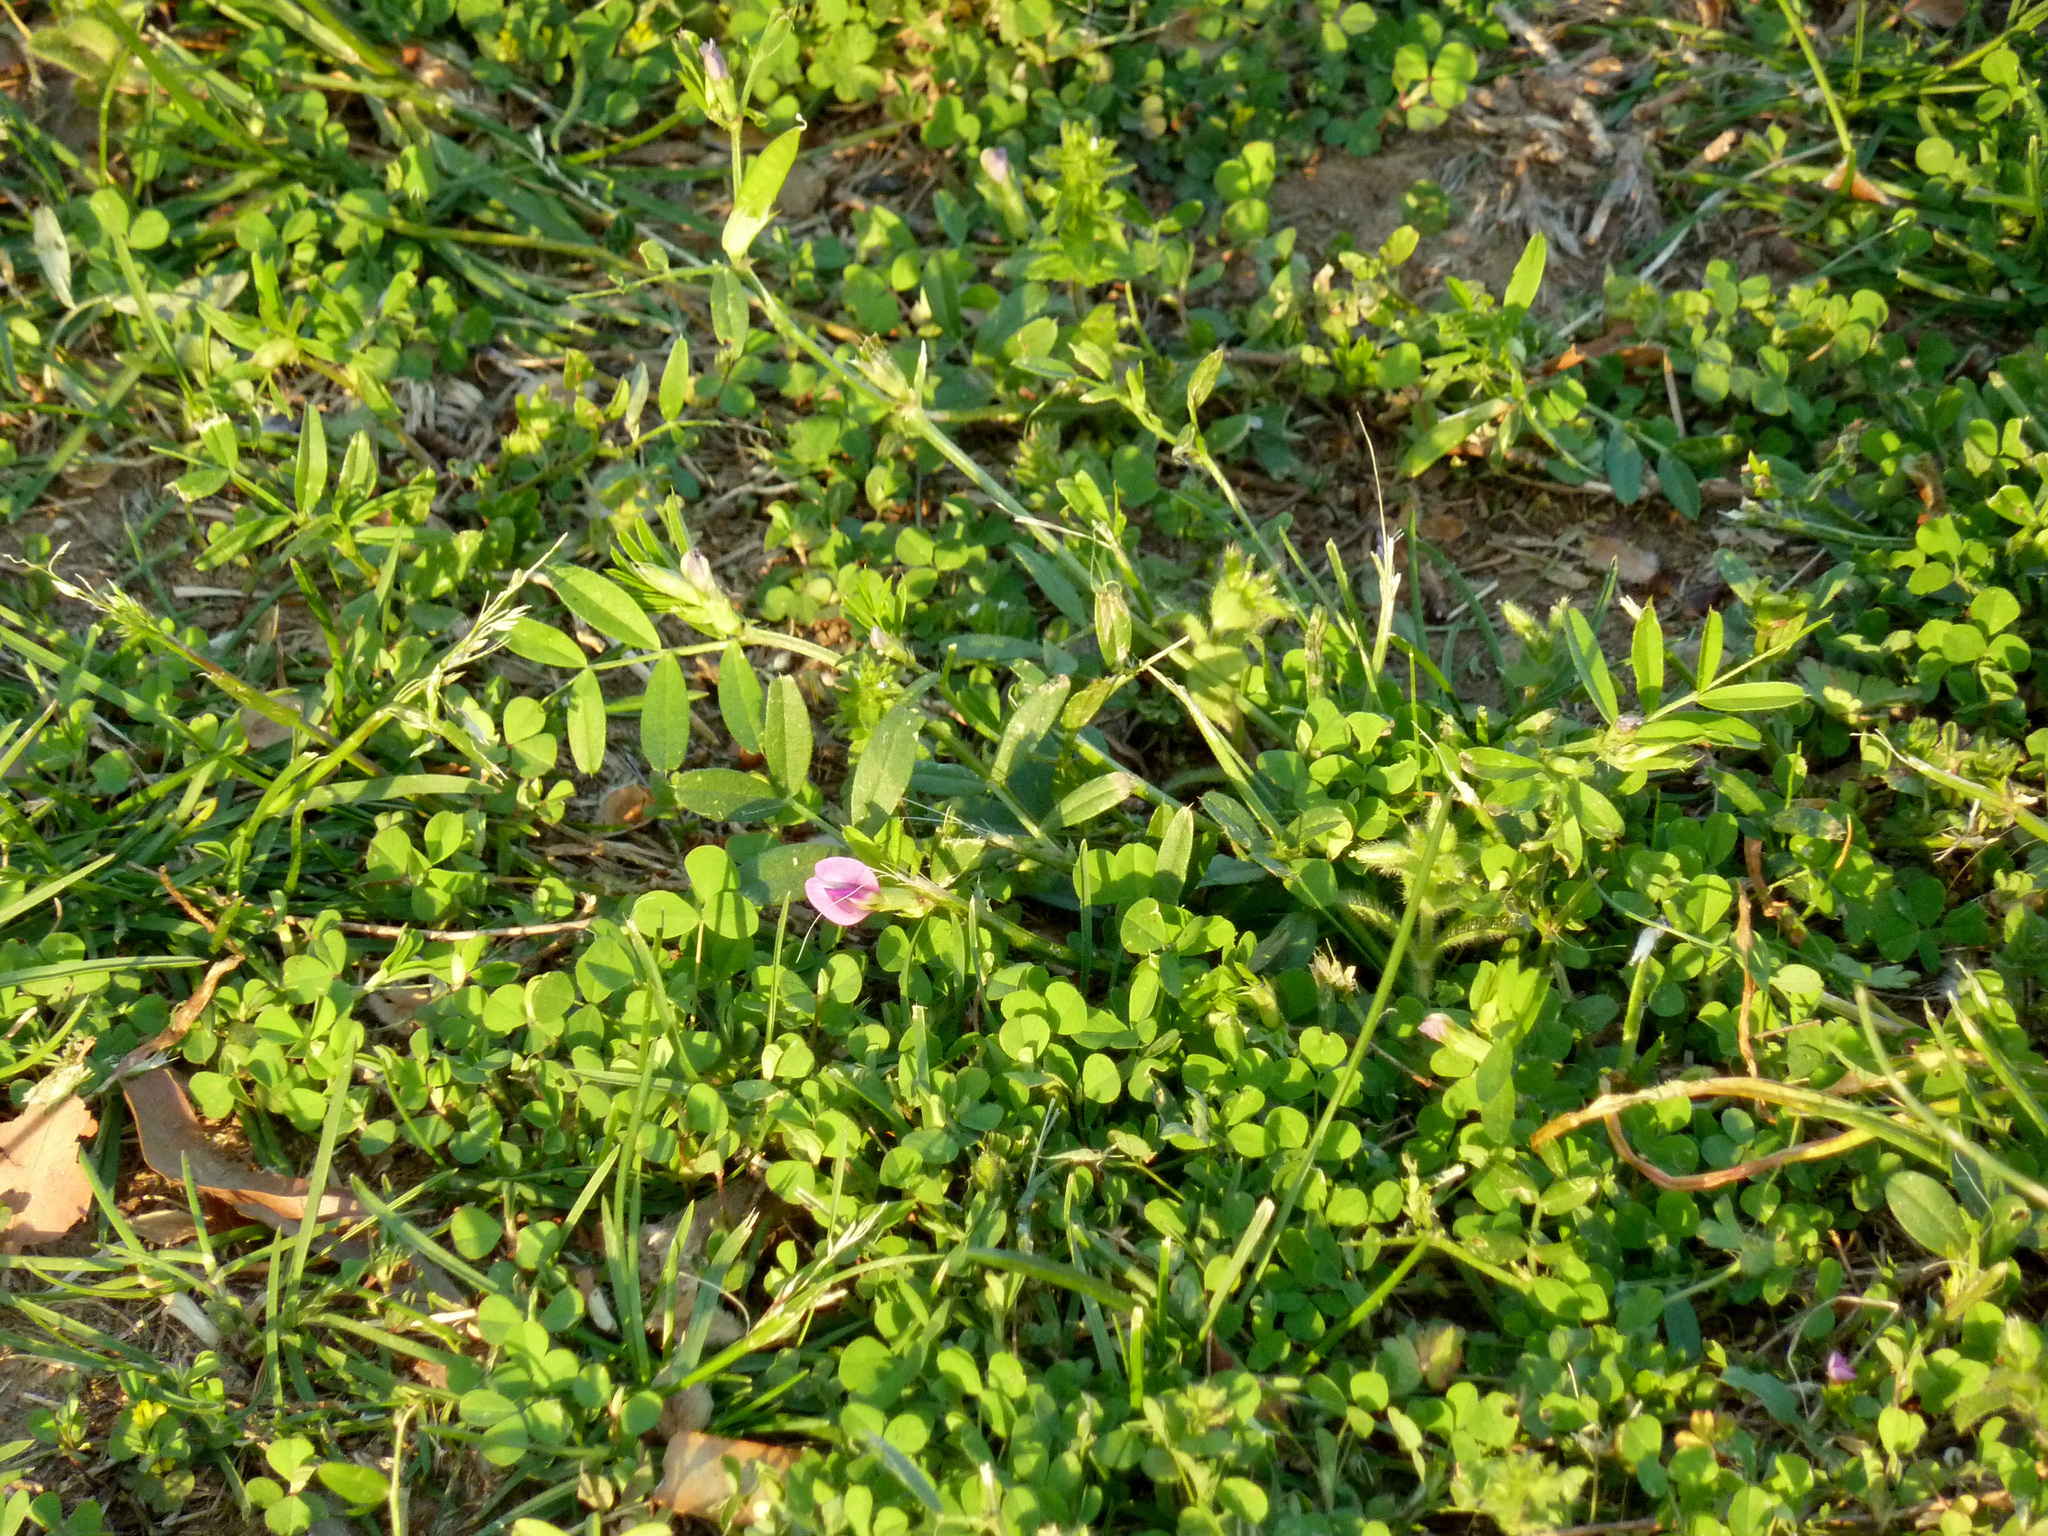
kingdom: Plantae
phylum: Tracheophyta
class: Magnoliopsida
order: Fabales
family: Fabaceae
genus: Vicia
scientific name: Vicia sativa
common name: Garden vetch
